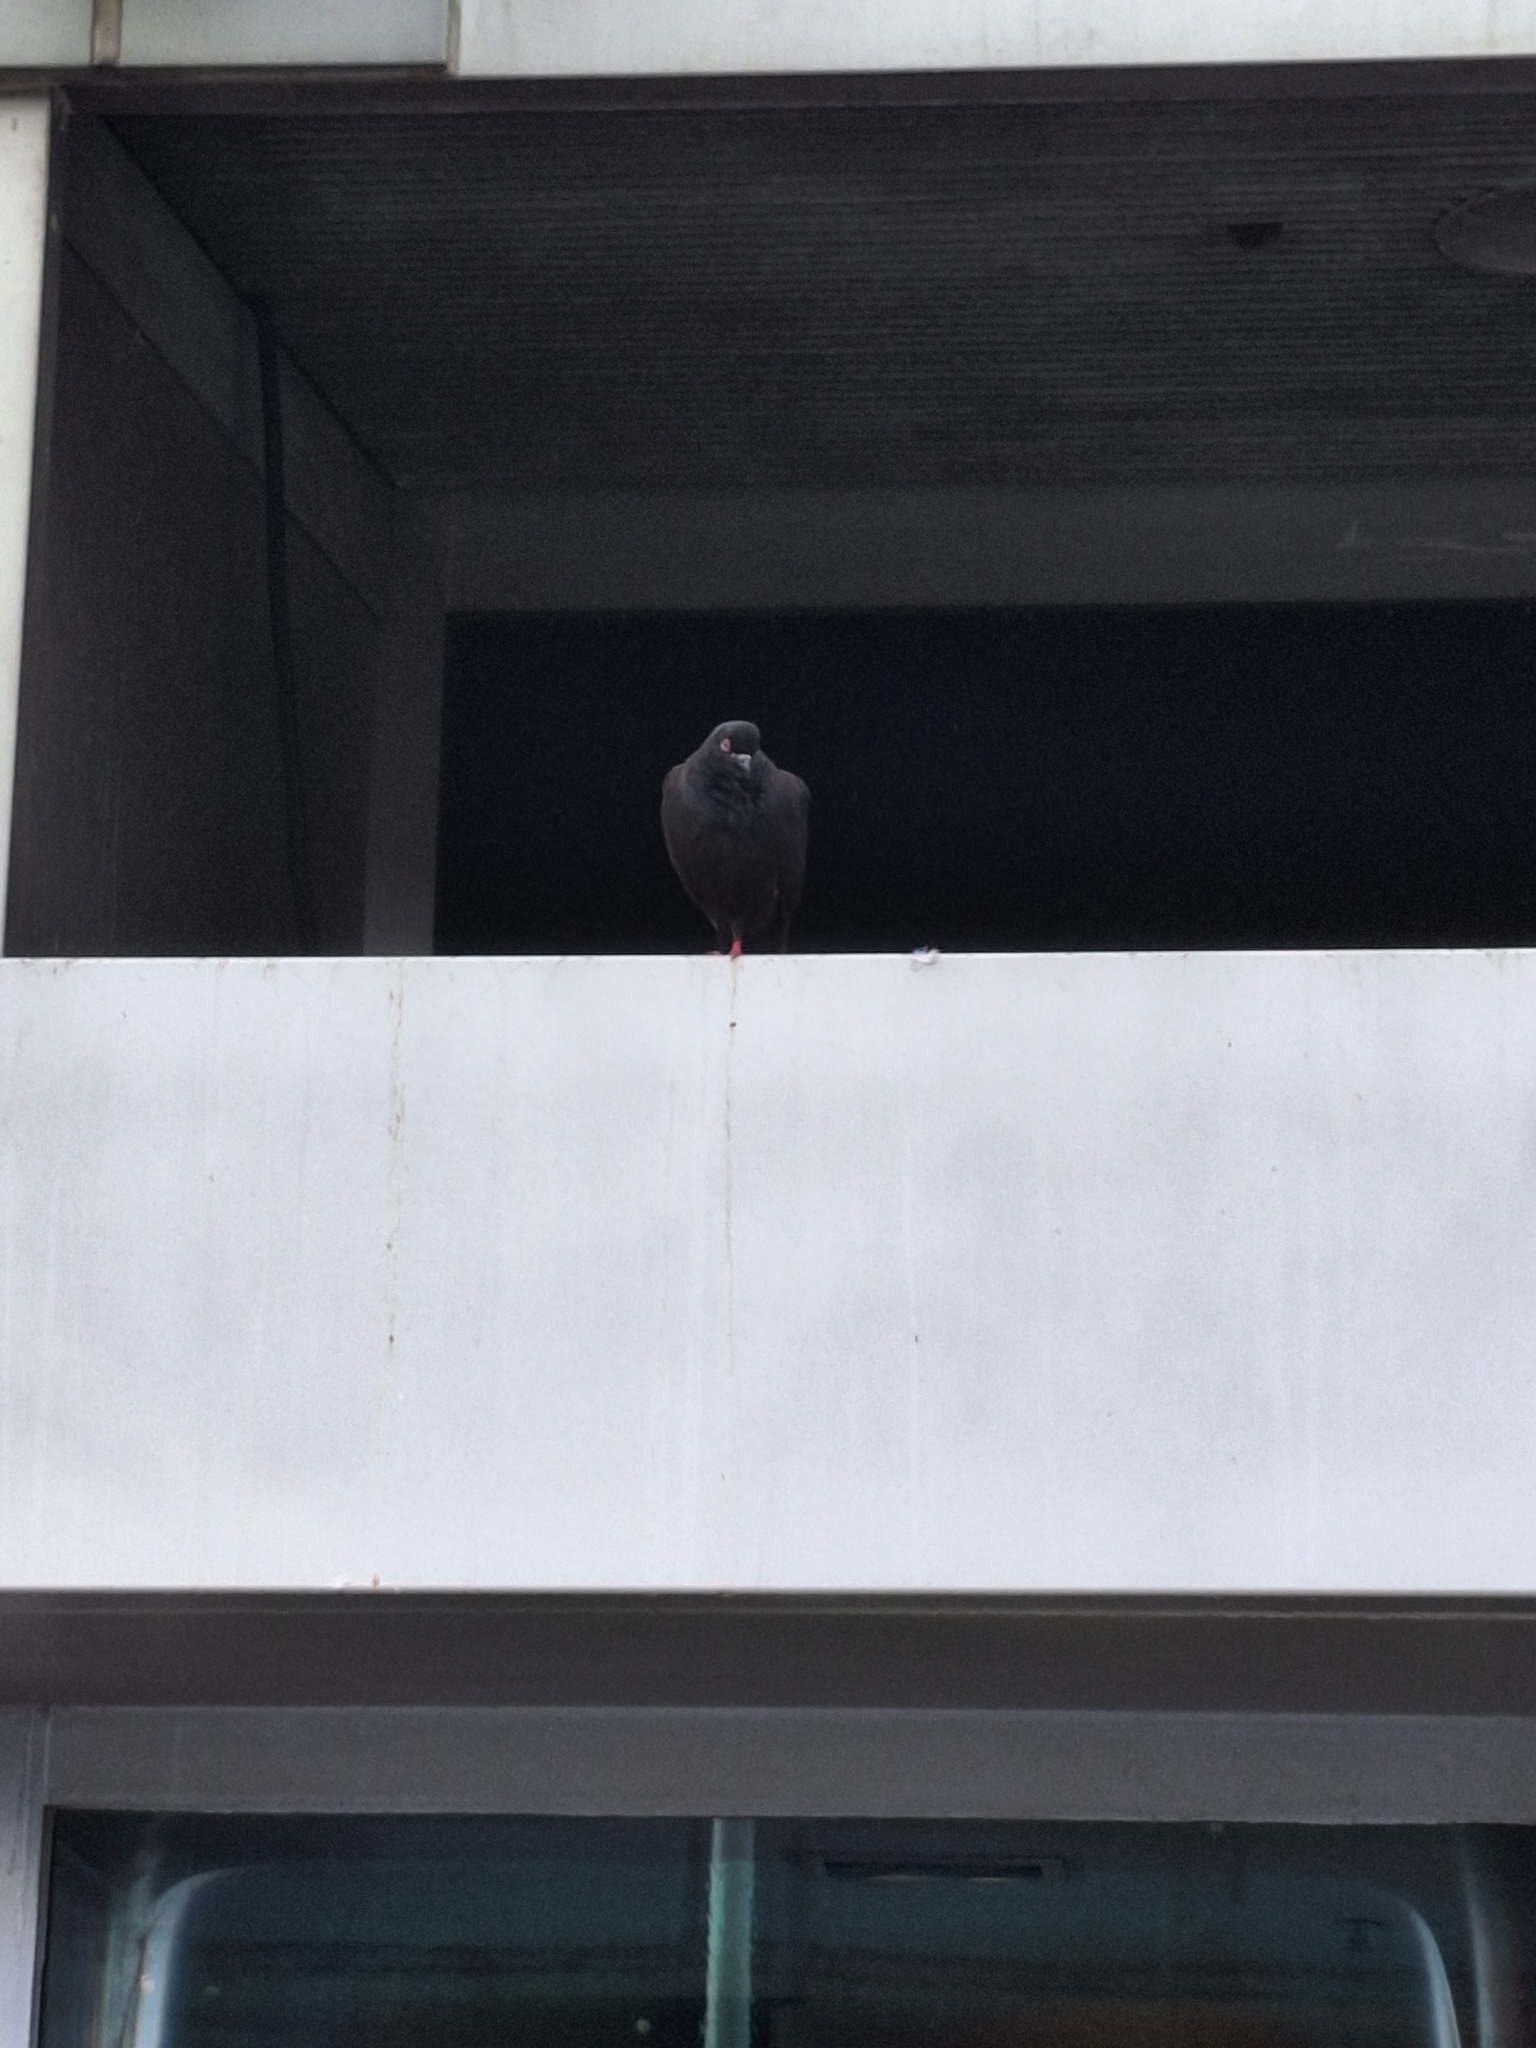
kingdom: Animalia
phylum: Chordata
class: Aves
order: Columbiformes
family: Columbidae
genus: Columba
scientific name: Columba livia
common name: Rock pigeon
